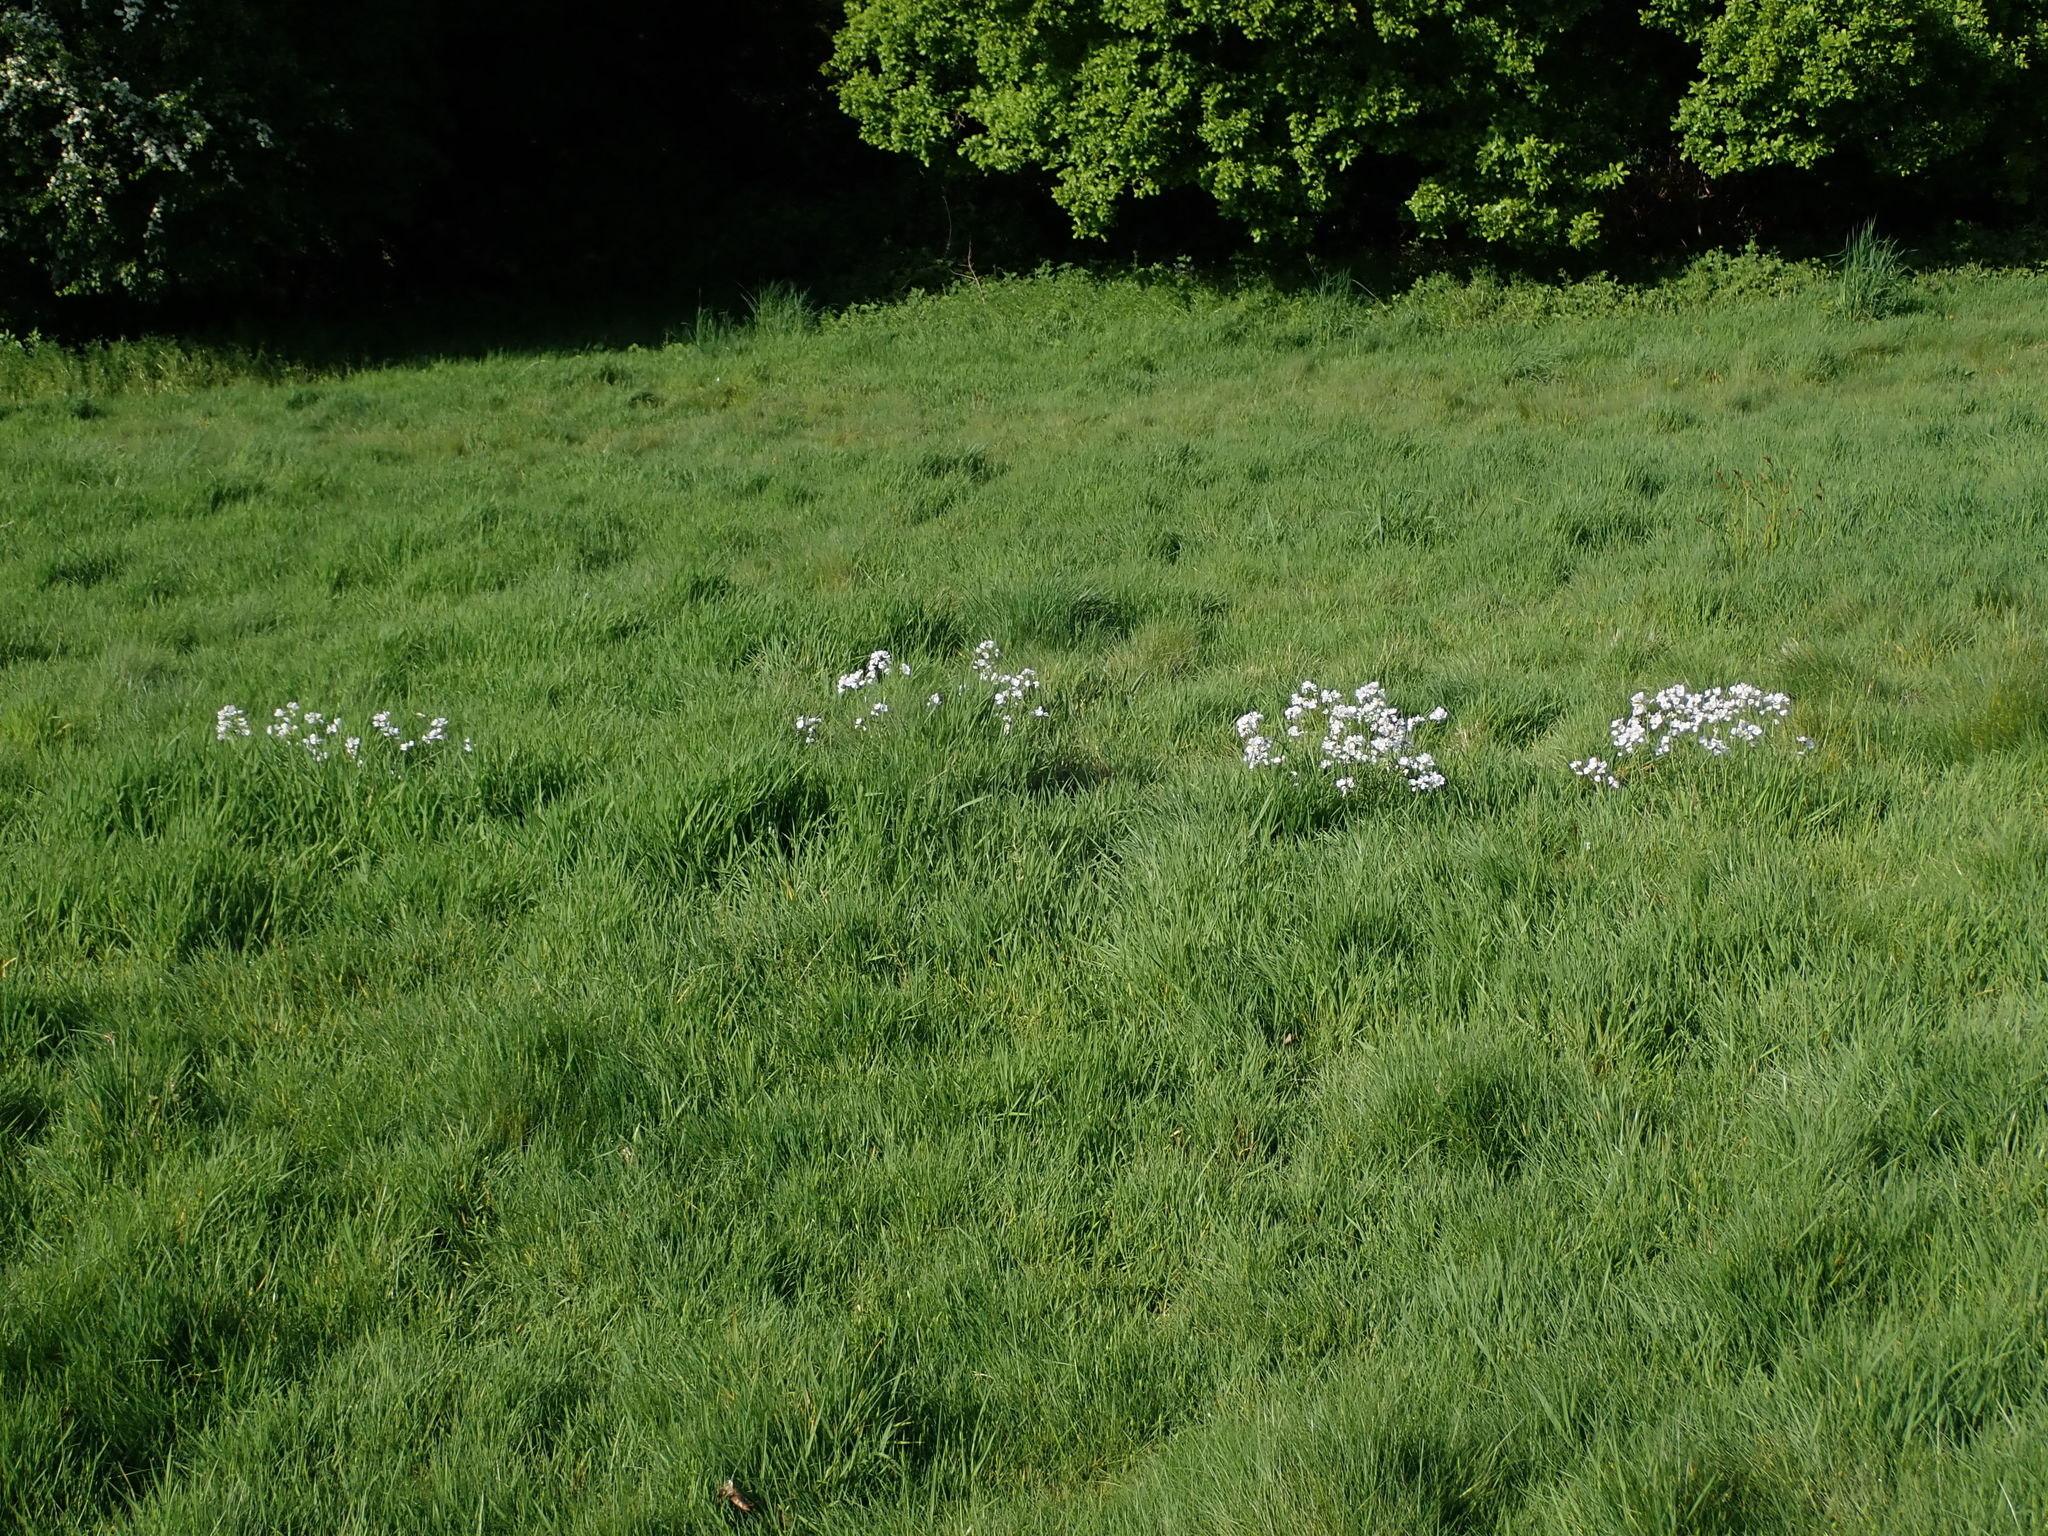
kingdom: Plantae
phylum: Tracheophyta
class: Magnoliopsida
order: Brassicales
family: Brassicaceae
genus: Cardamine
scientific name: Cardamine pratensis
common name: Cuckoo flower
